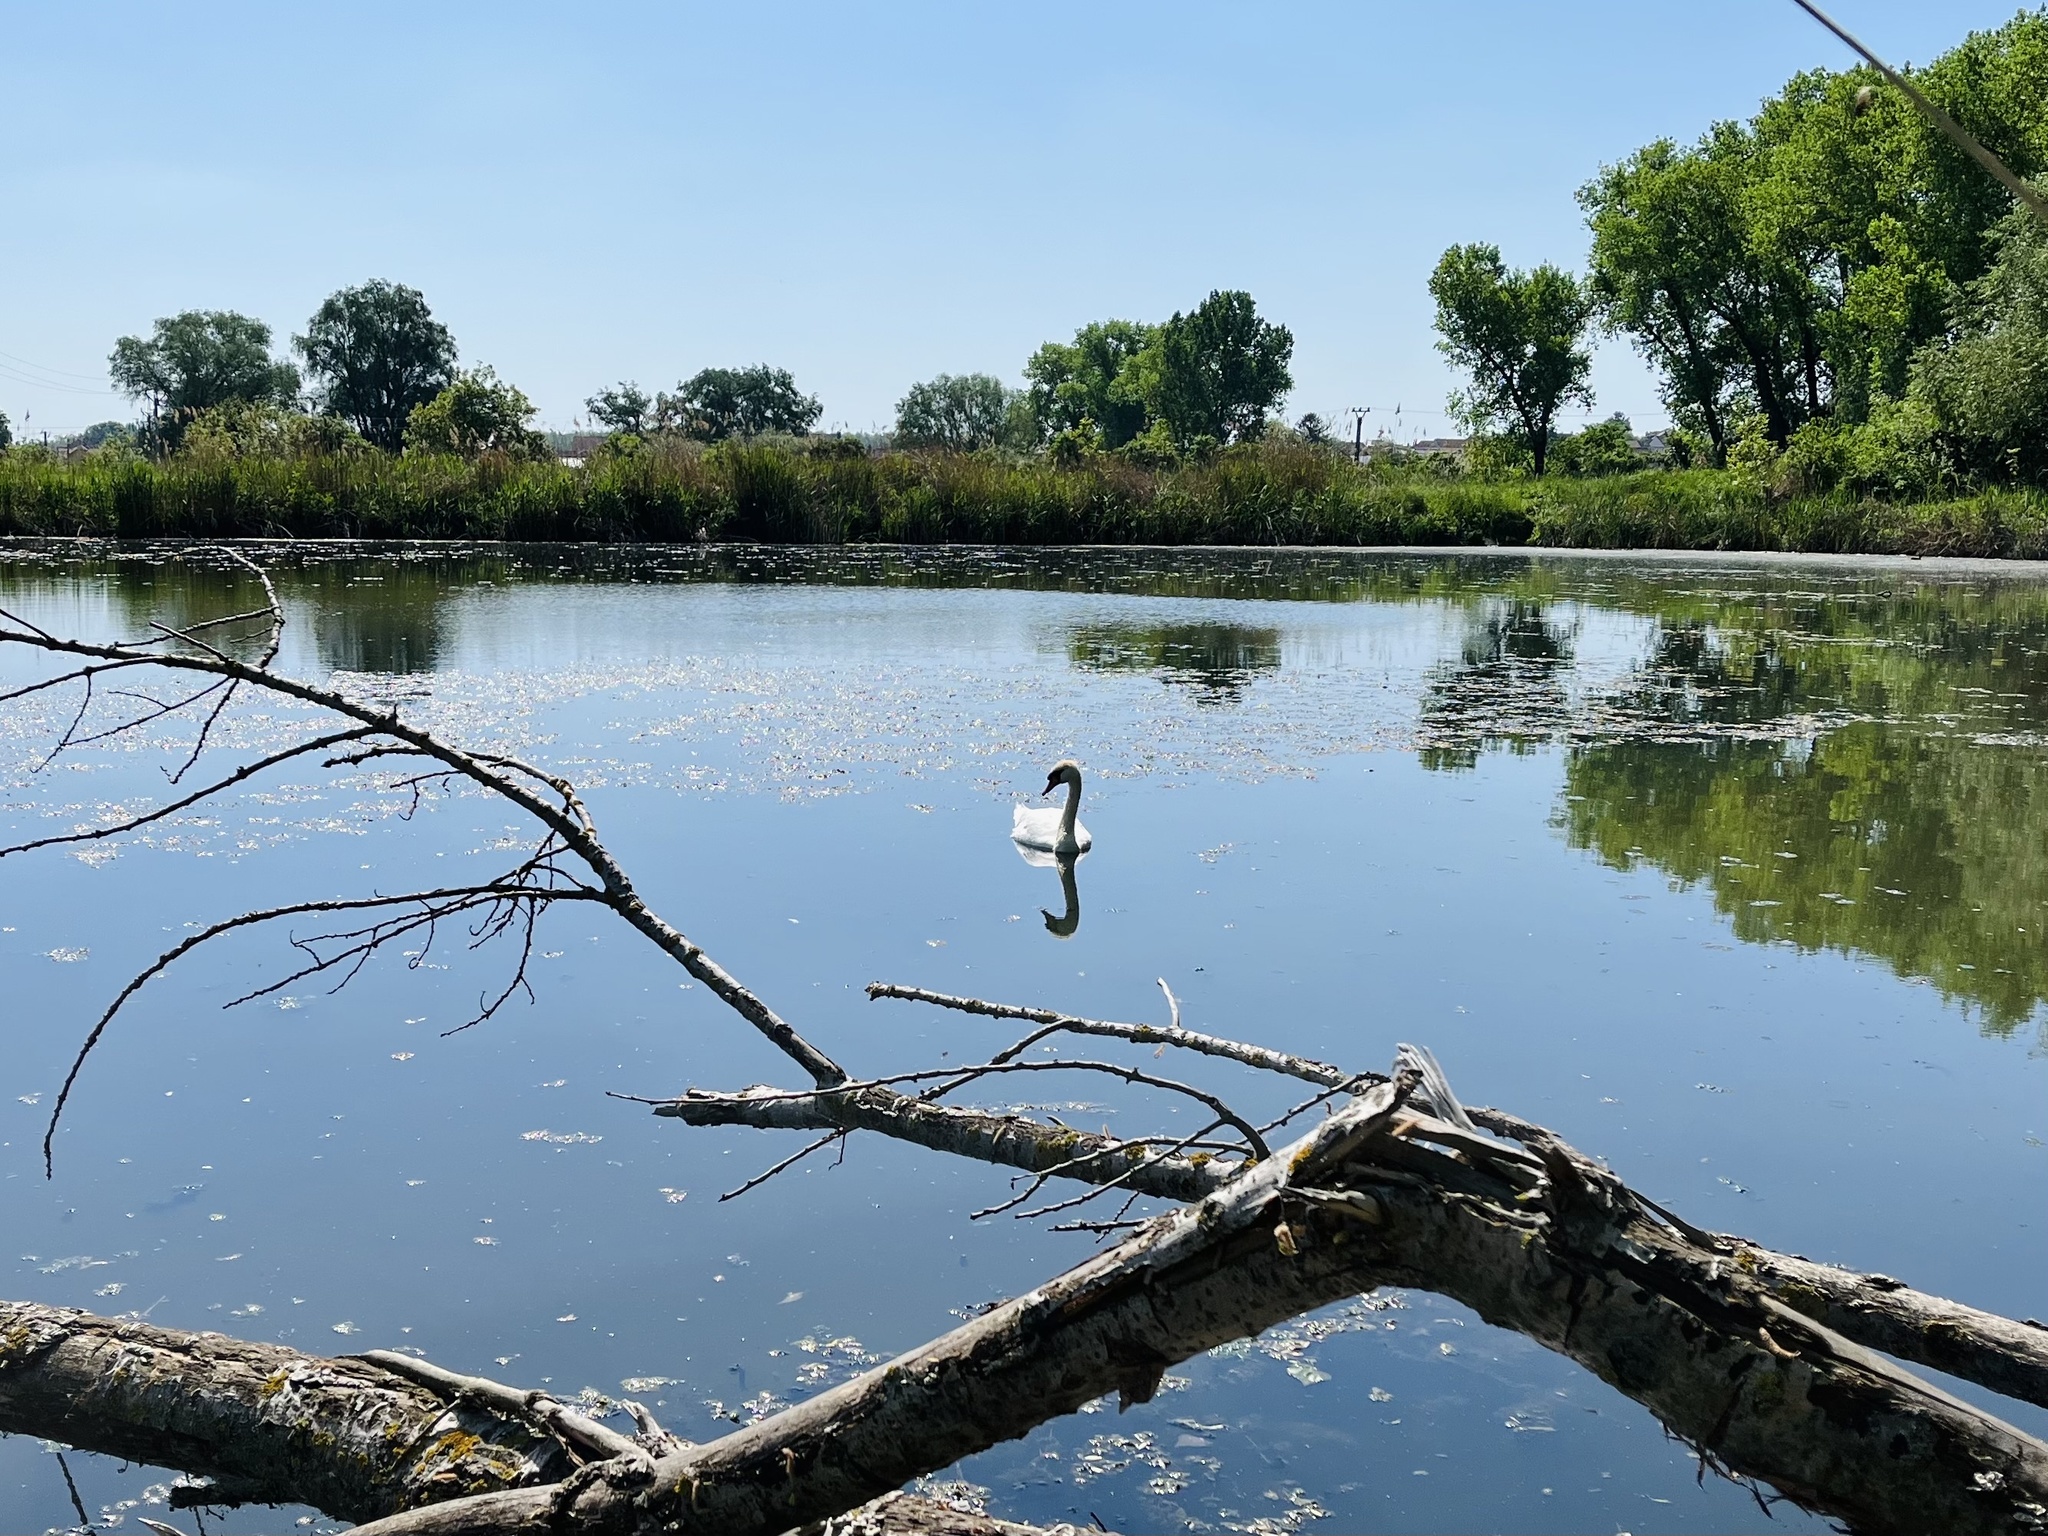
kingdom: Animalia
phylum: Chordata
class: Aves
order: Anseriformes
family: Anatidae
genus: Cygnus
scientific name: Cygnus olor
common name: Mute swan
